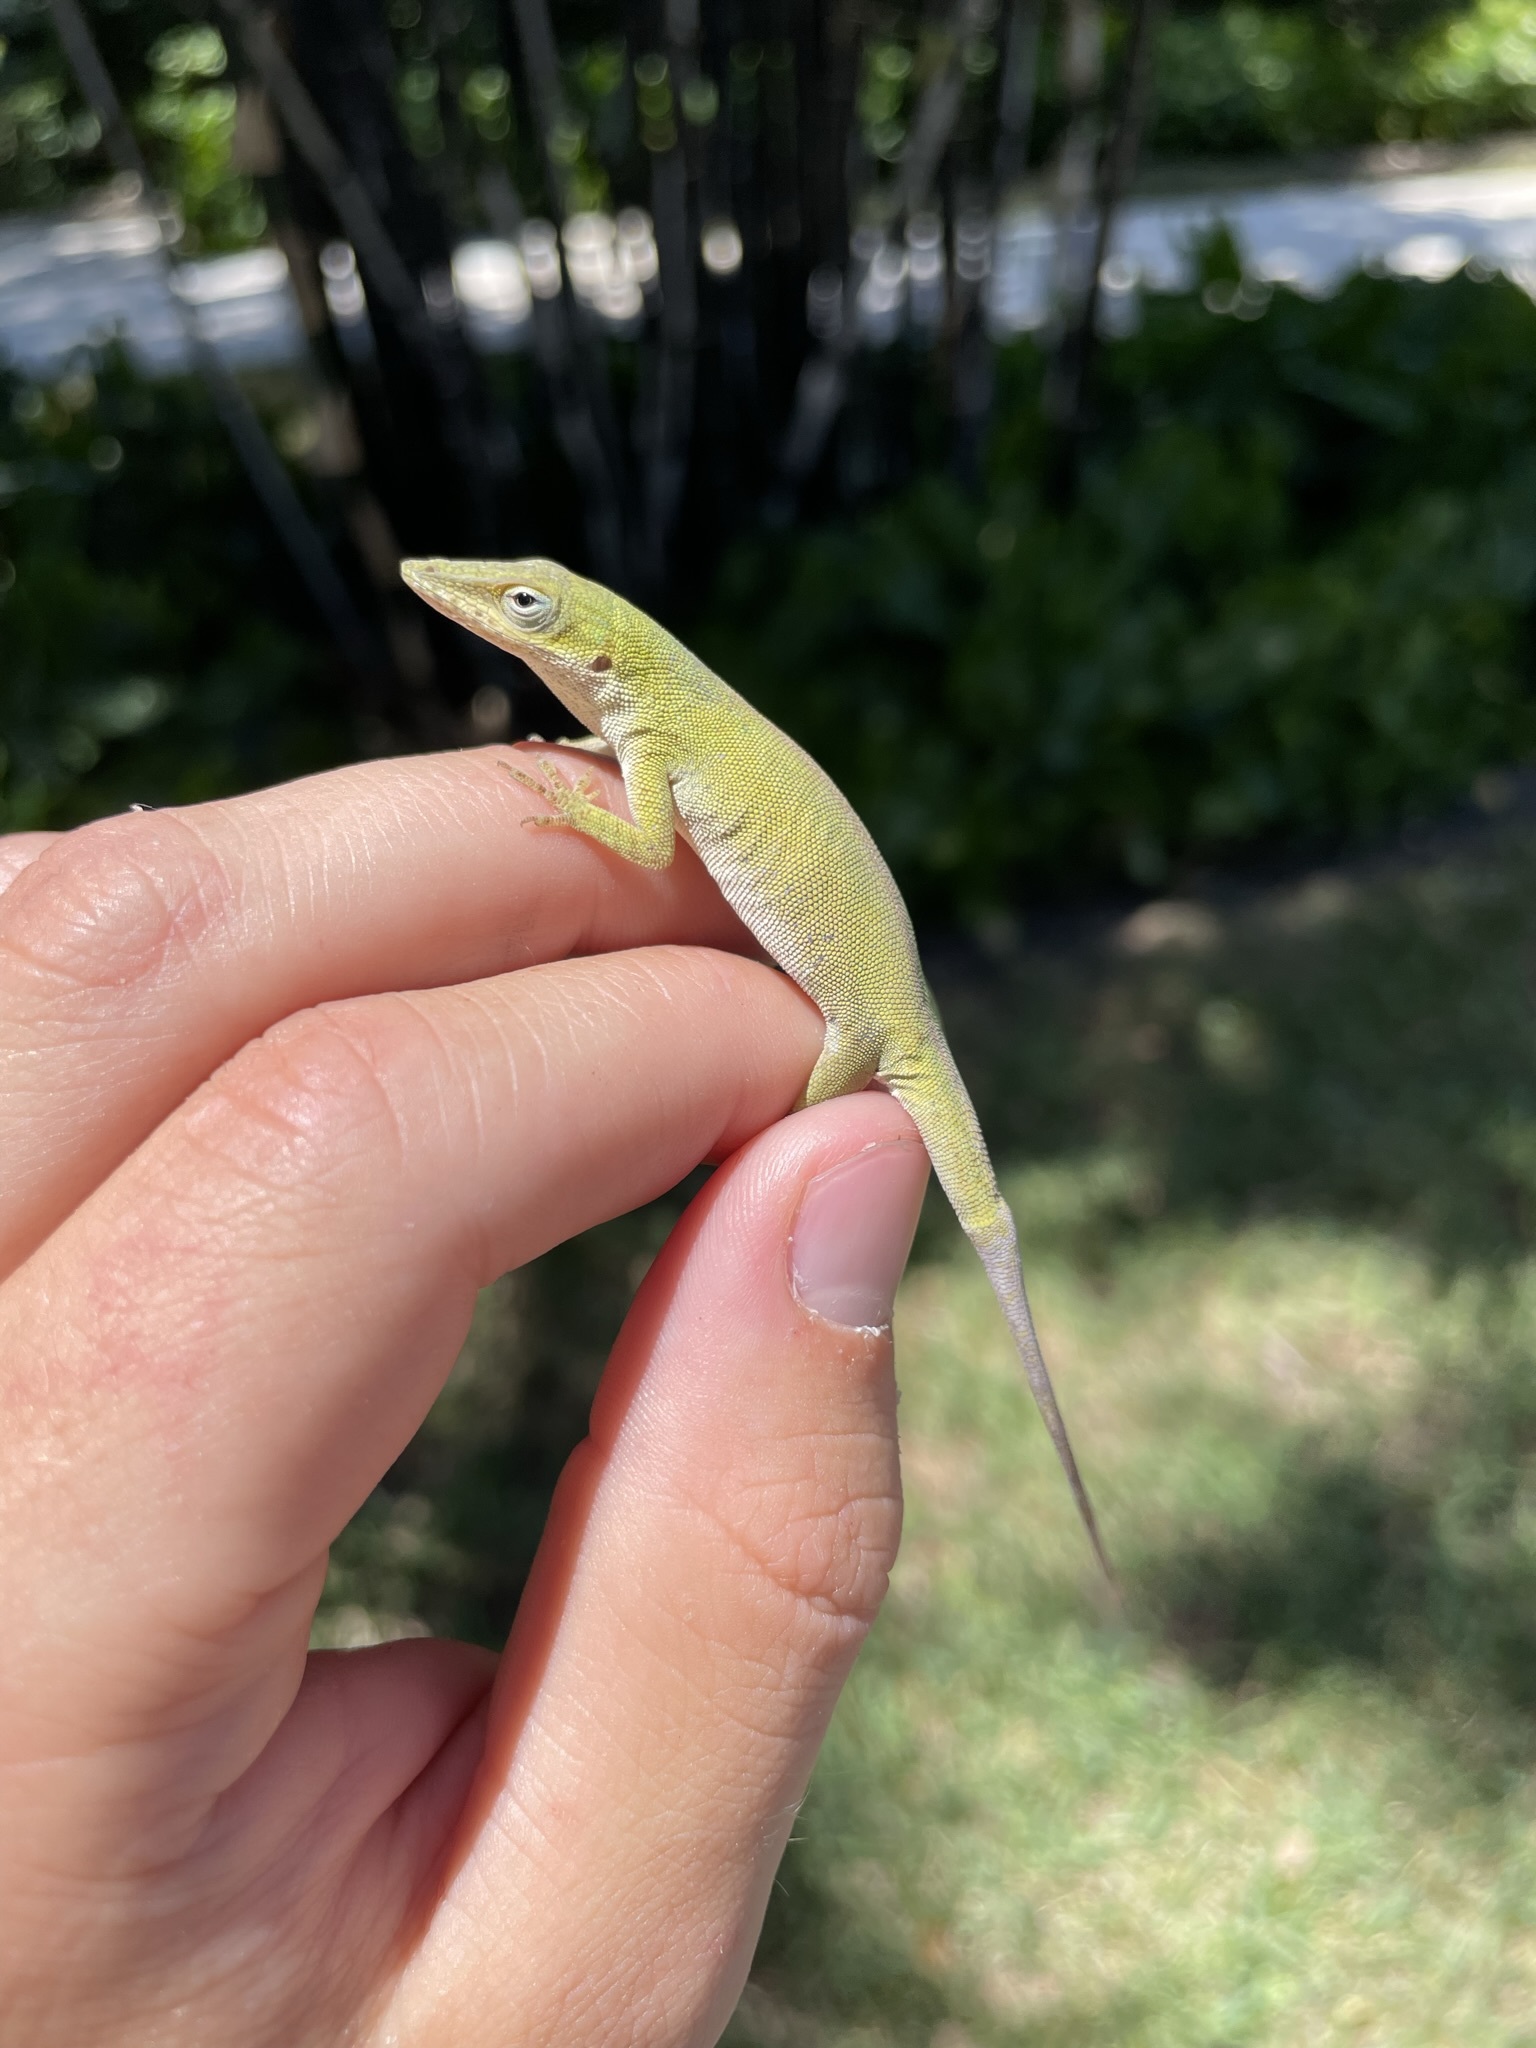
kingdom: Animalia
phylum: Chordata
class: Squamata
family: Dactyloidae
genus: Anolis
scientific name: Anolis carolinensis
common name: Green anole
